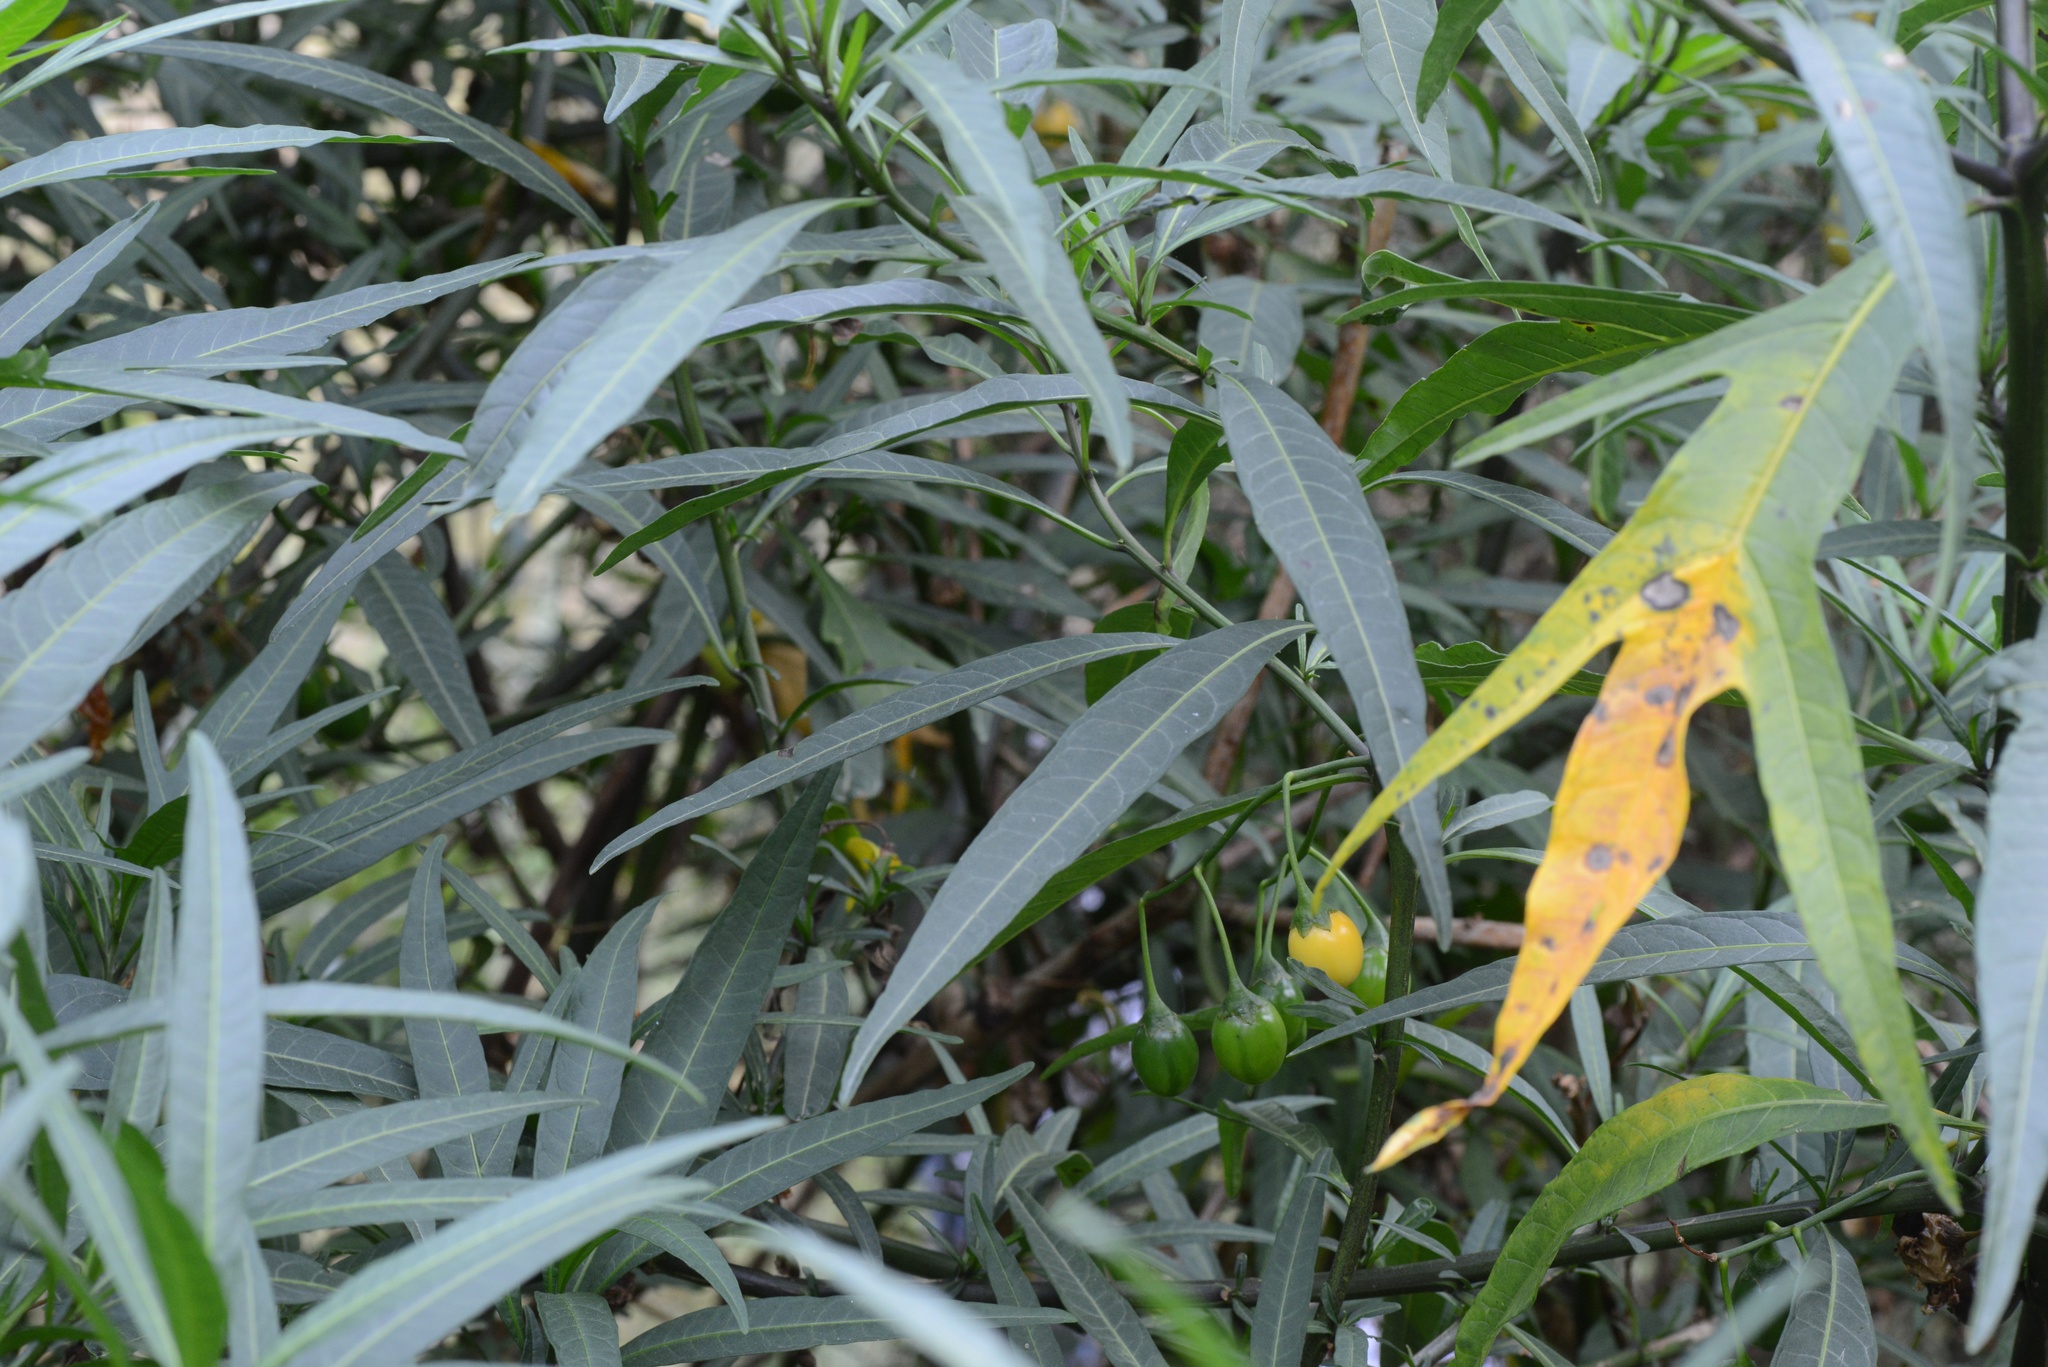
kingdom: Plantae
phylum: Tracheophyta
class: Magnoliopsida
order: Solanales
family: Solanaceae
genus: Solanum
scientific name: Solanum
